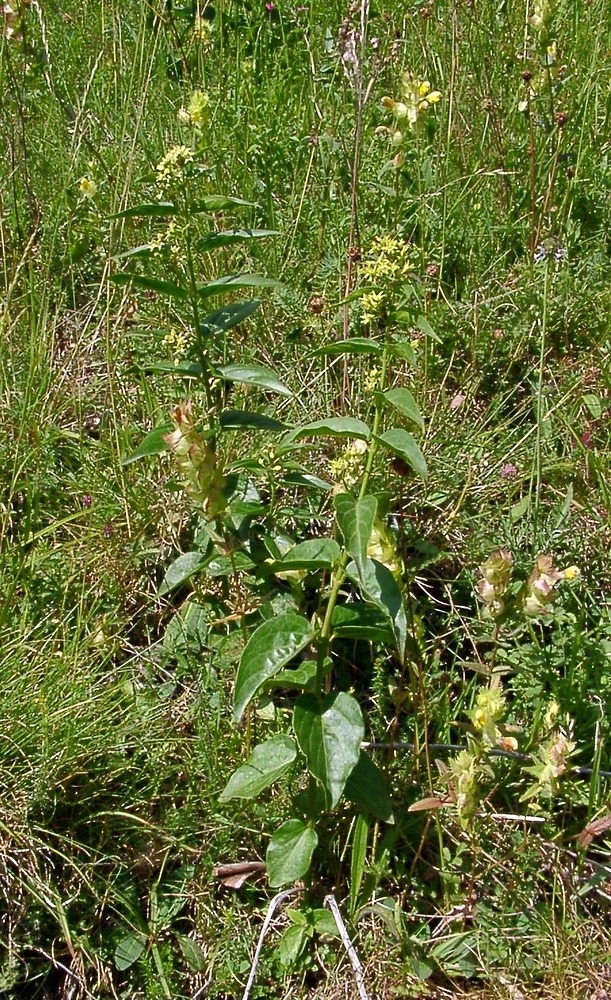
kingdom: Plantae
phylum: Tracheophyta
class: Magnoliopsida
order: Gentianales
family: Apocynaceae
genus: Vincetoxicum
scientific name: Vincetoxicum hirundinaria
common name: White swallowwort
